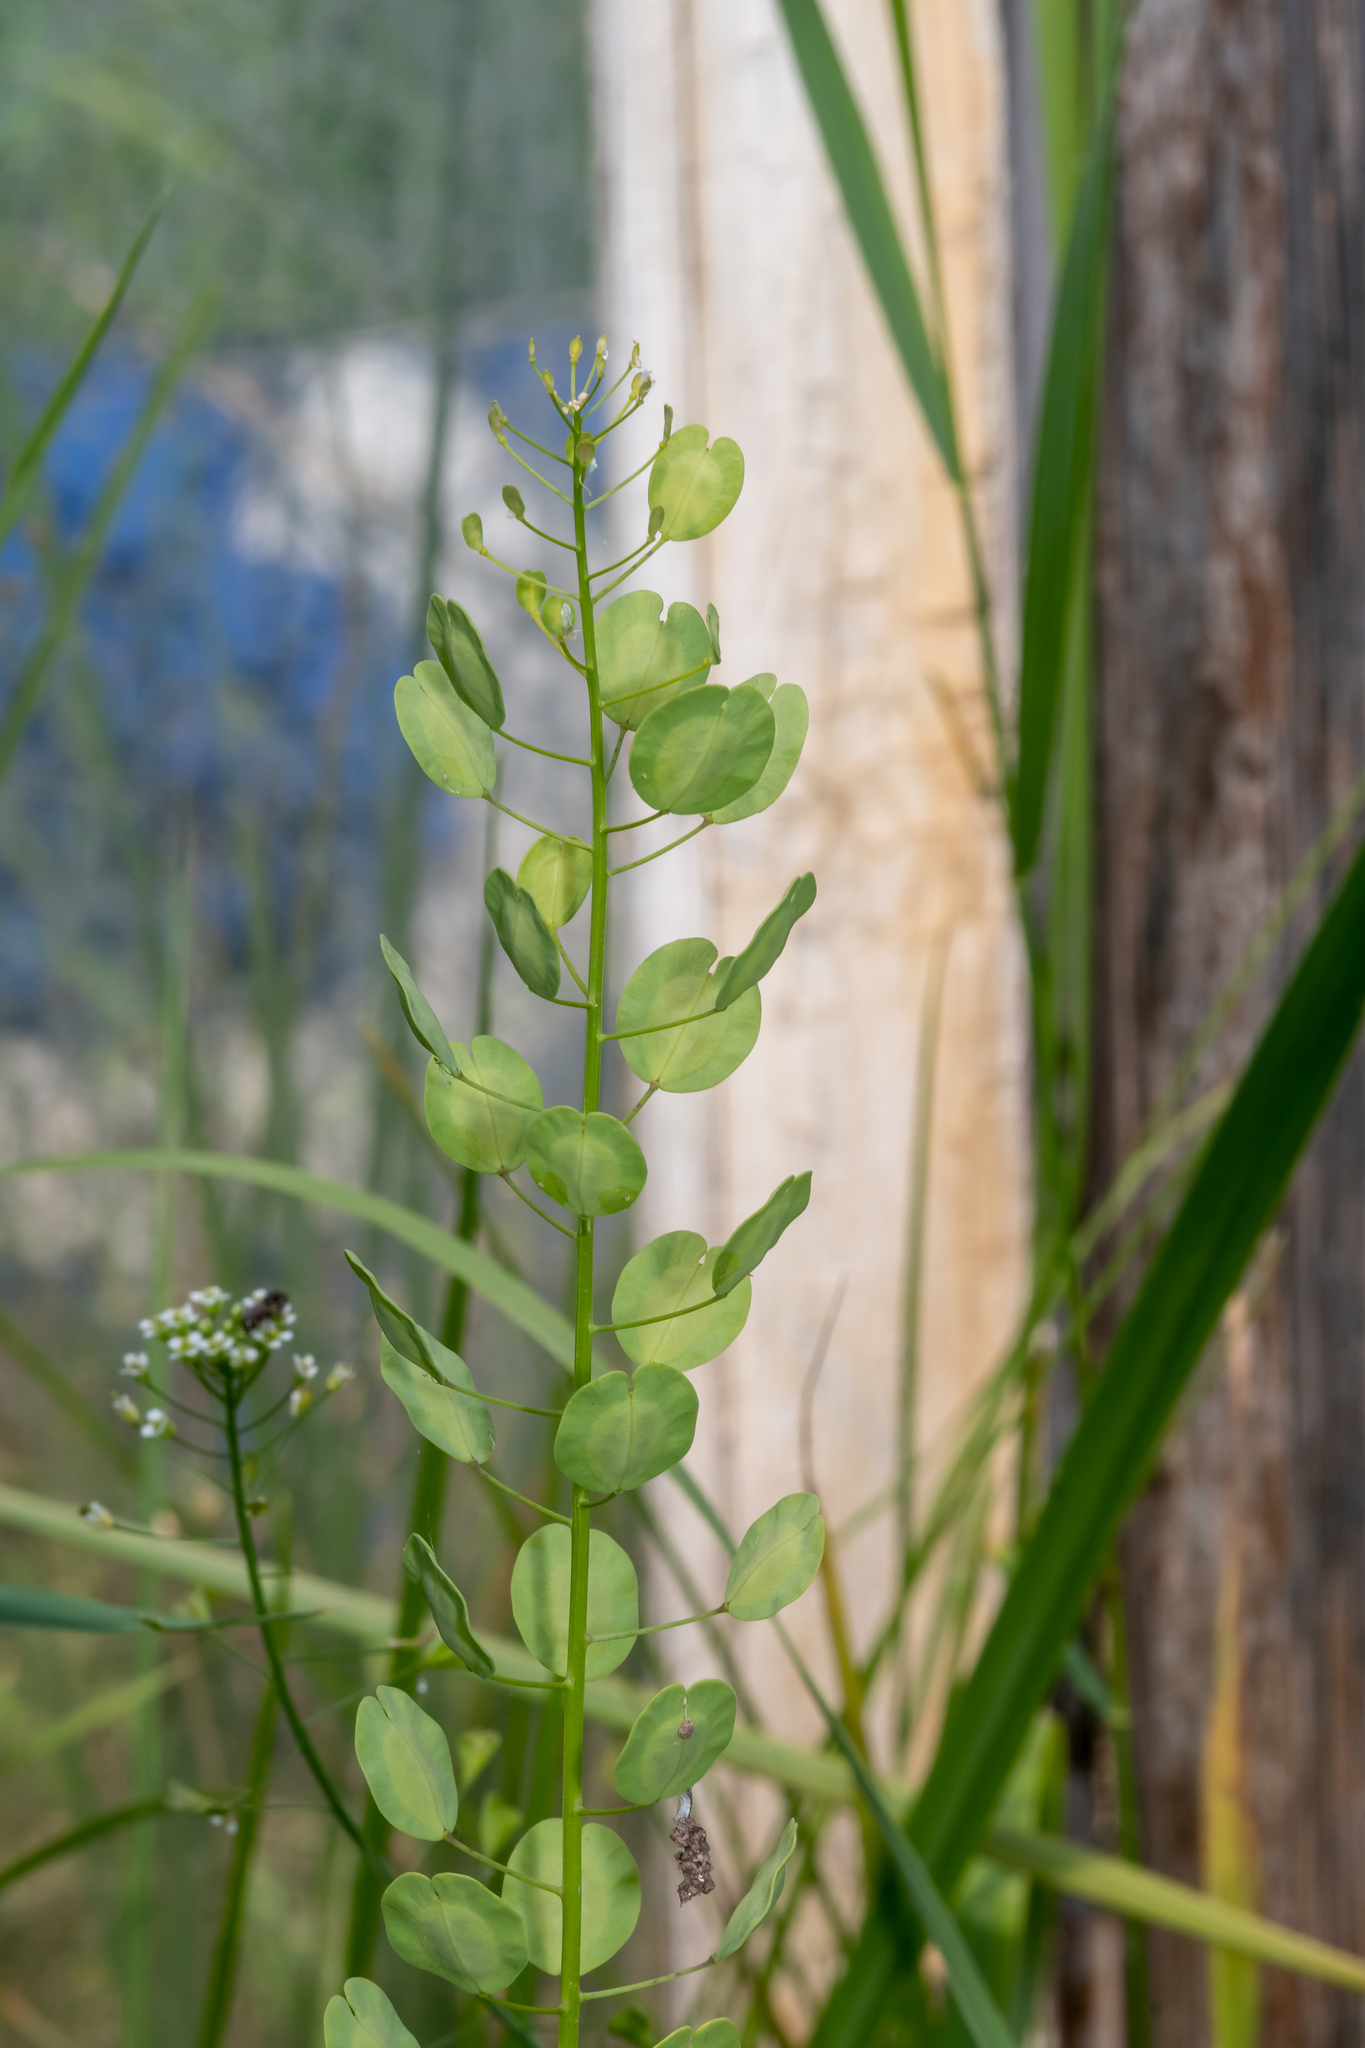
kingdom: Plantae
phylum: Tracheophyta
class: Magnoliopsida
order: Brassicales
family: Brassicaceae
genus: Thlaspi
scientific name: Thlaspi arvense
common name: Field pennycress
